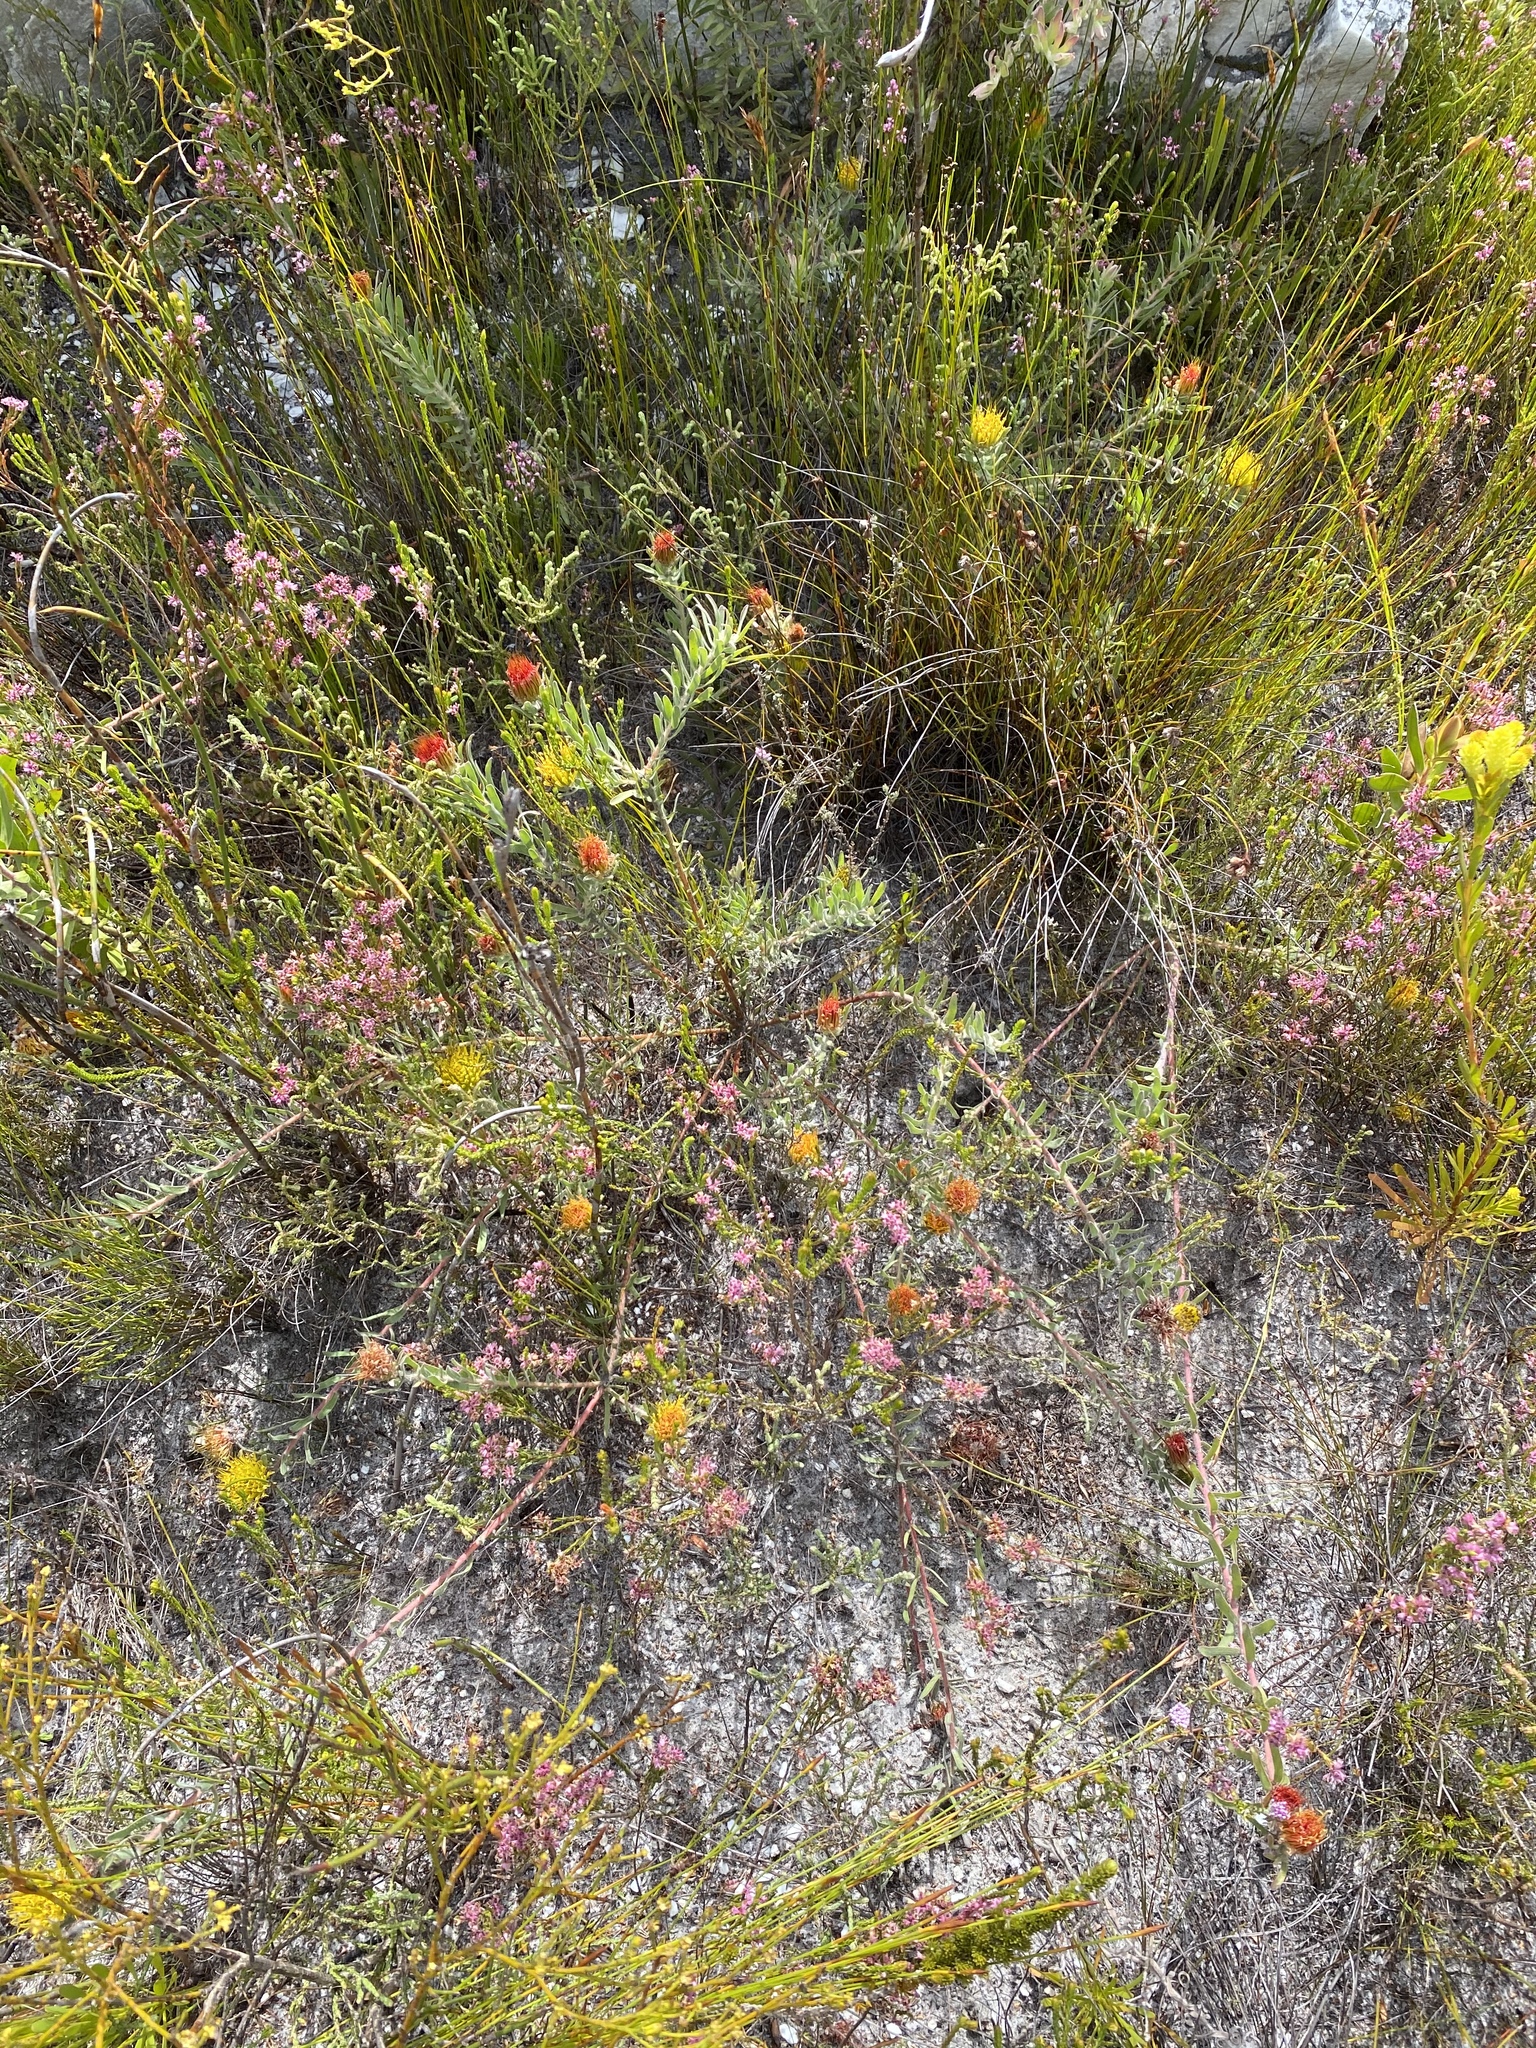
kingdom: Plantae
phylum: Tracheophyta
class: Magnoliopsida
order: Proteales
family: Proteaceae
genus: Leucospermum
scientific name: Leucospermum gracile
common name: Hermanus pincushion
